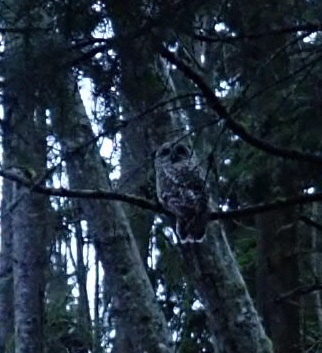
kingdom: Animalia
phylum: Chordata
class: Aves
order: Strigiformes
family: Strigidae
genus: Strix
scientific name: Strix varia
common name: Barred owl
